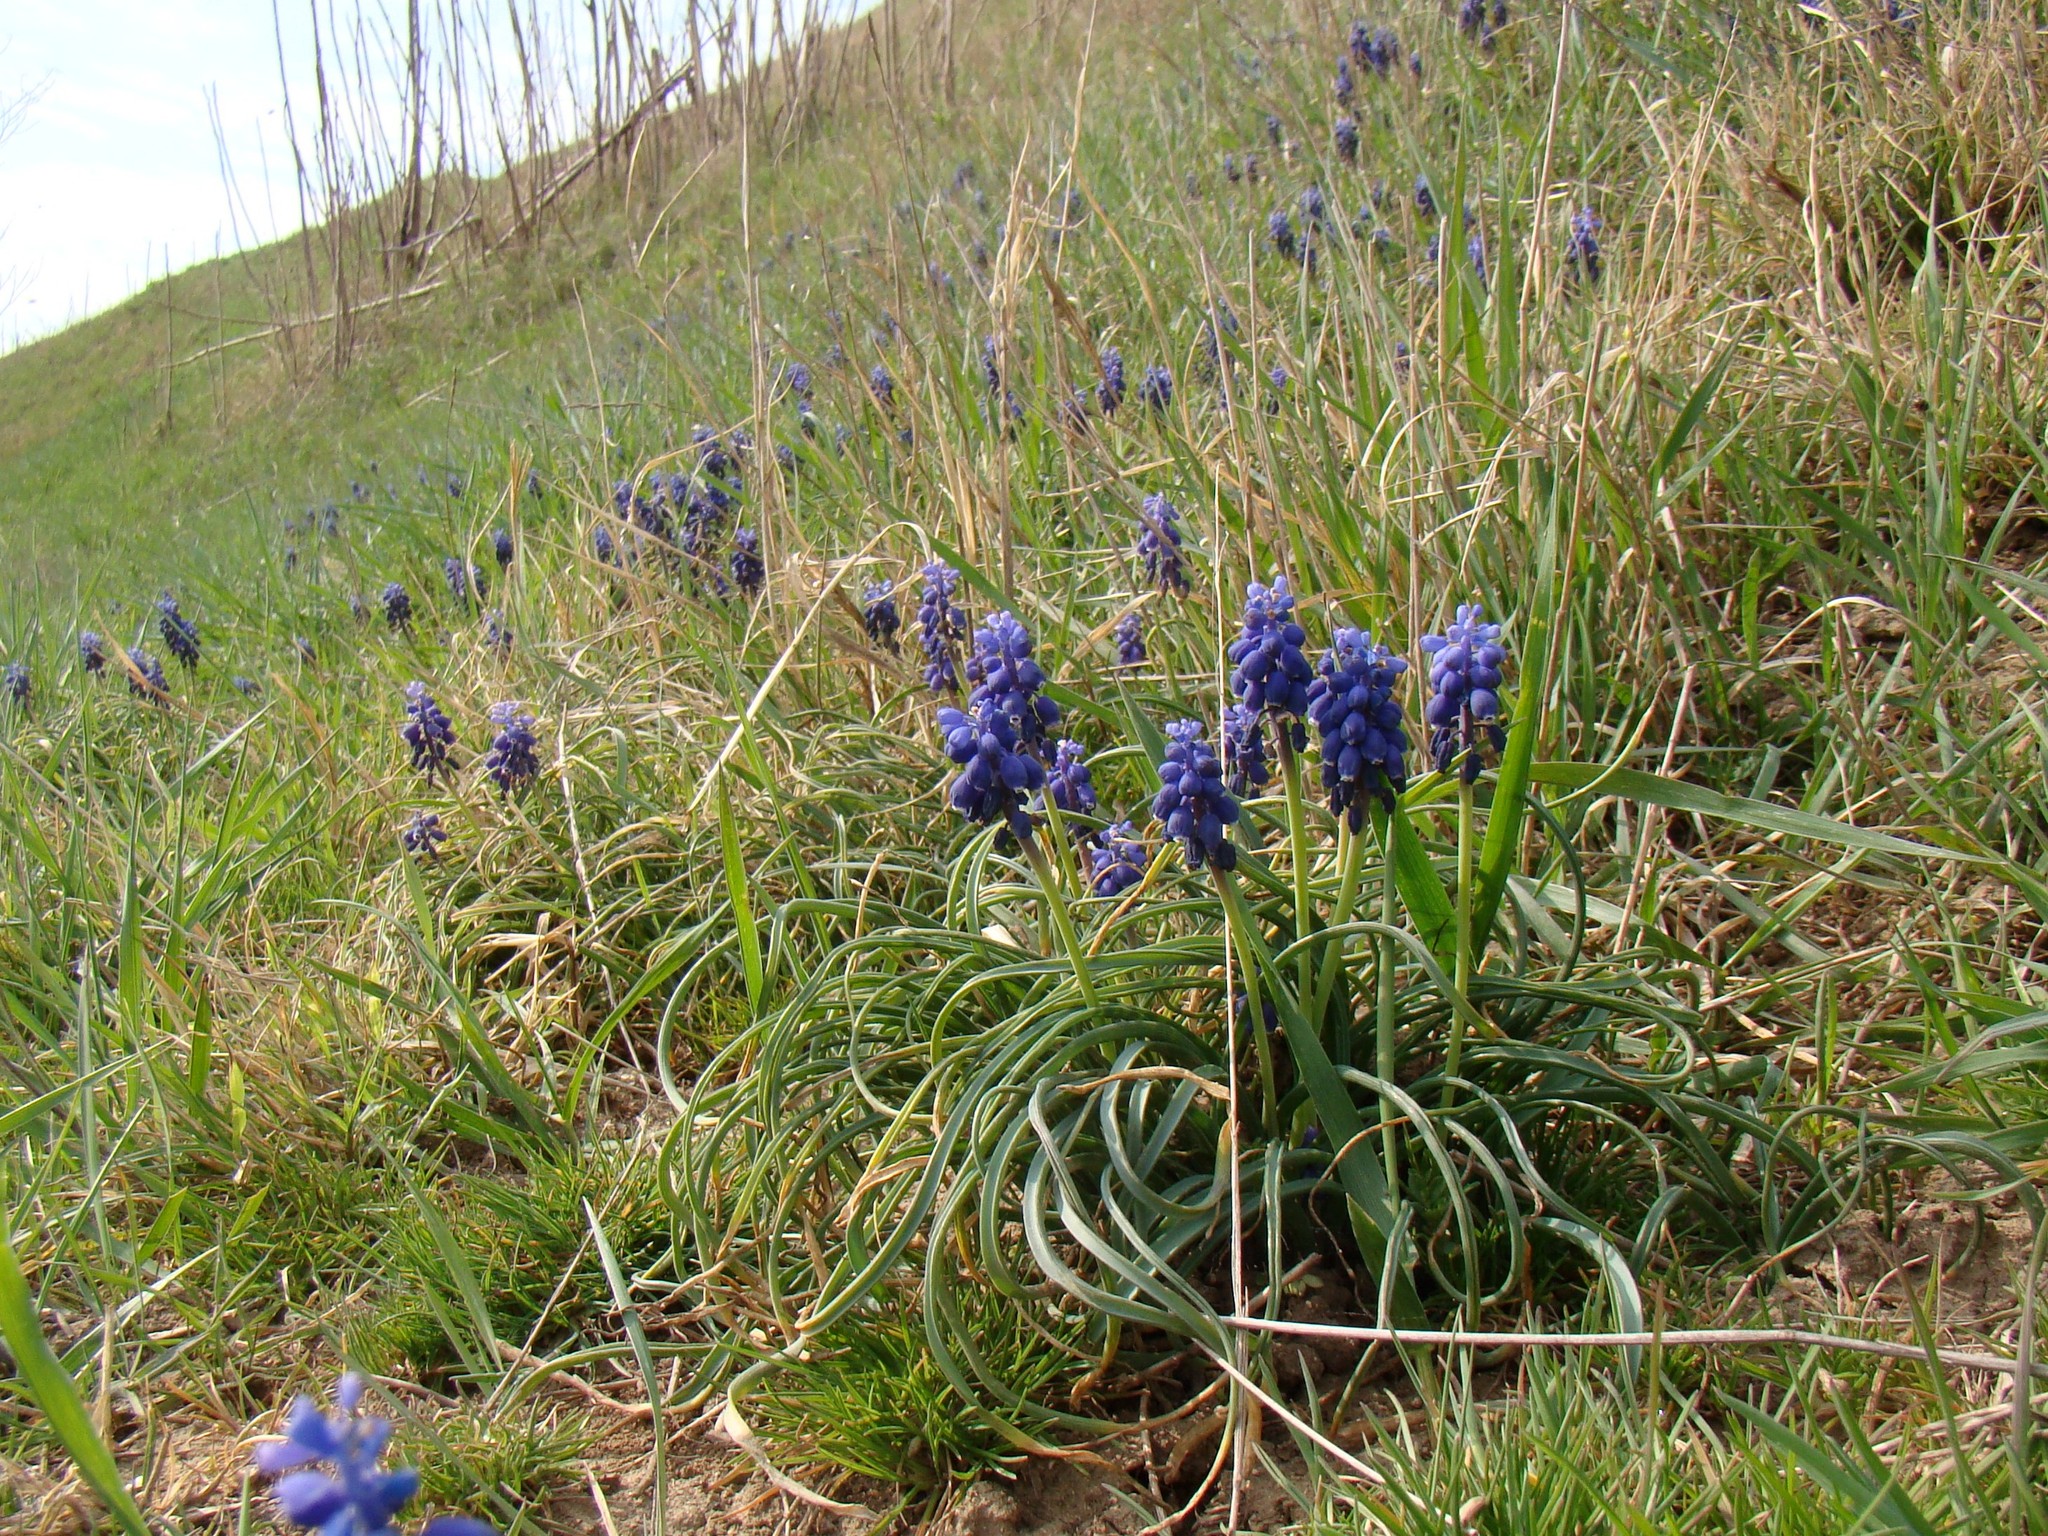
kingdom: Plantae
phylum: Tracheophyta
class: Liliopsida
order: Asparagales
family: Asparagaceae
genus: Muscari
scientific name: Muscari neglectum
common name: Grape-hyacinth
